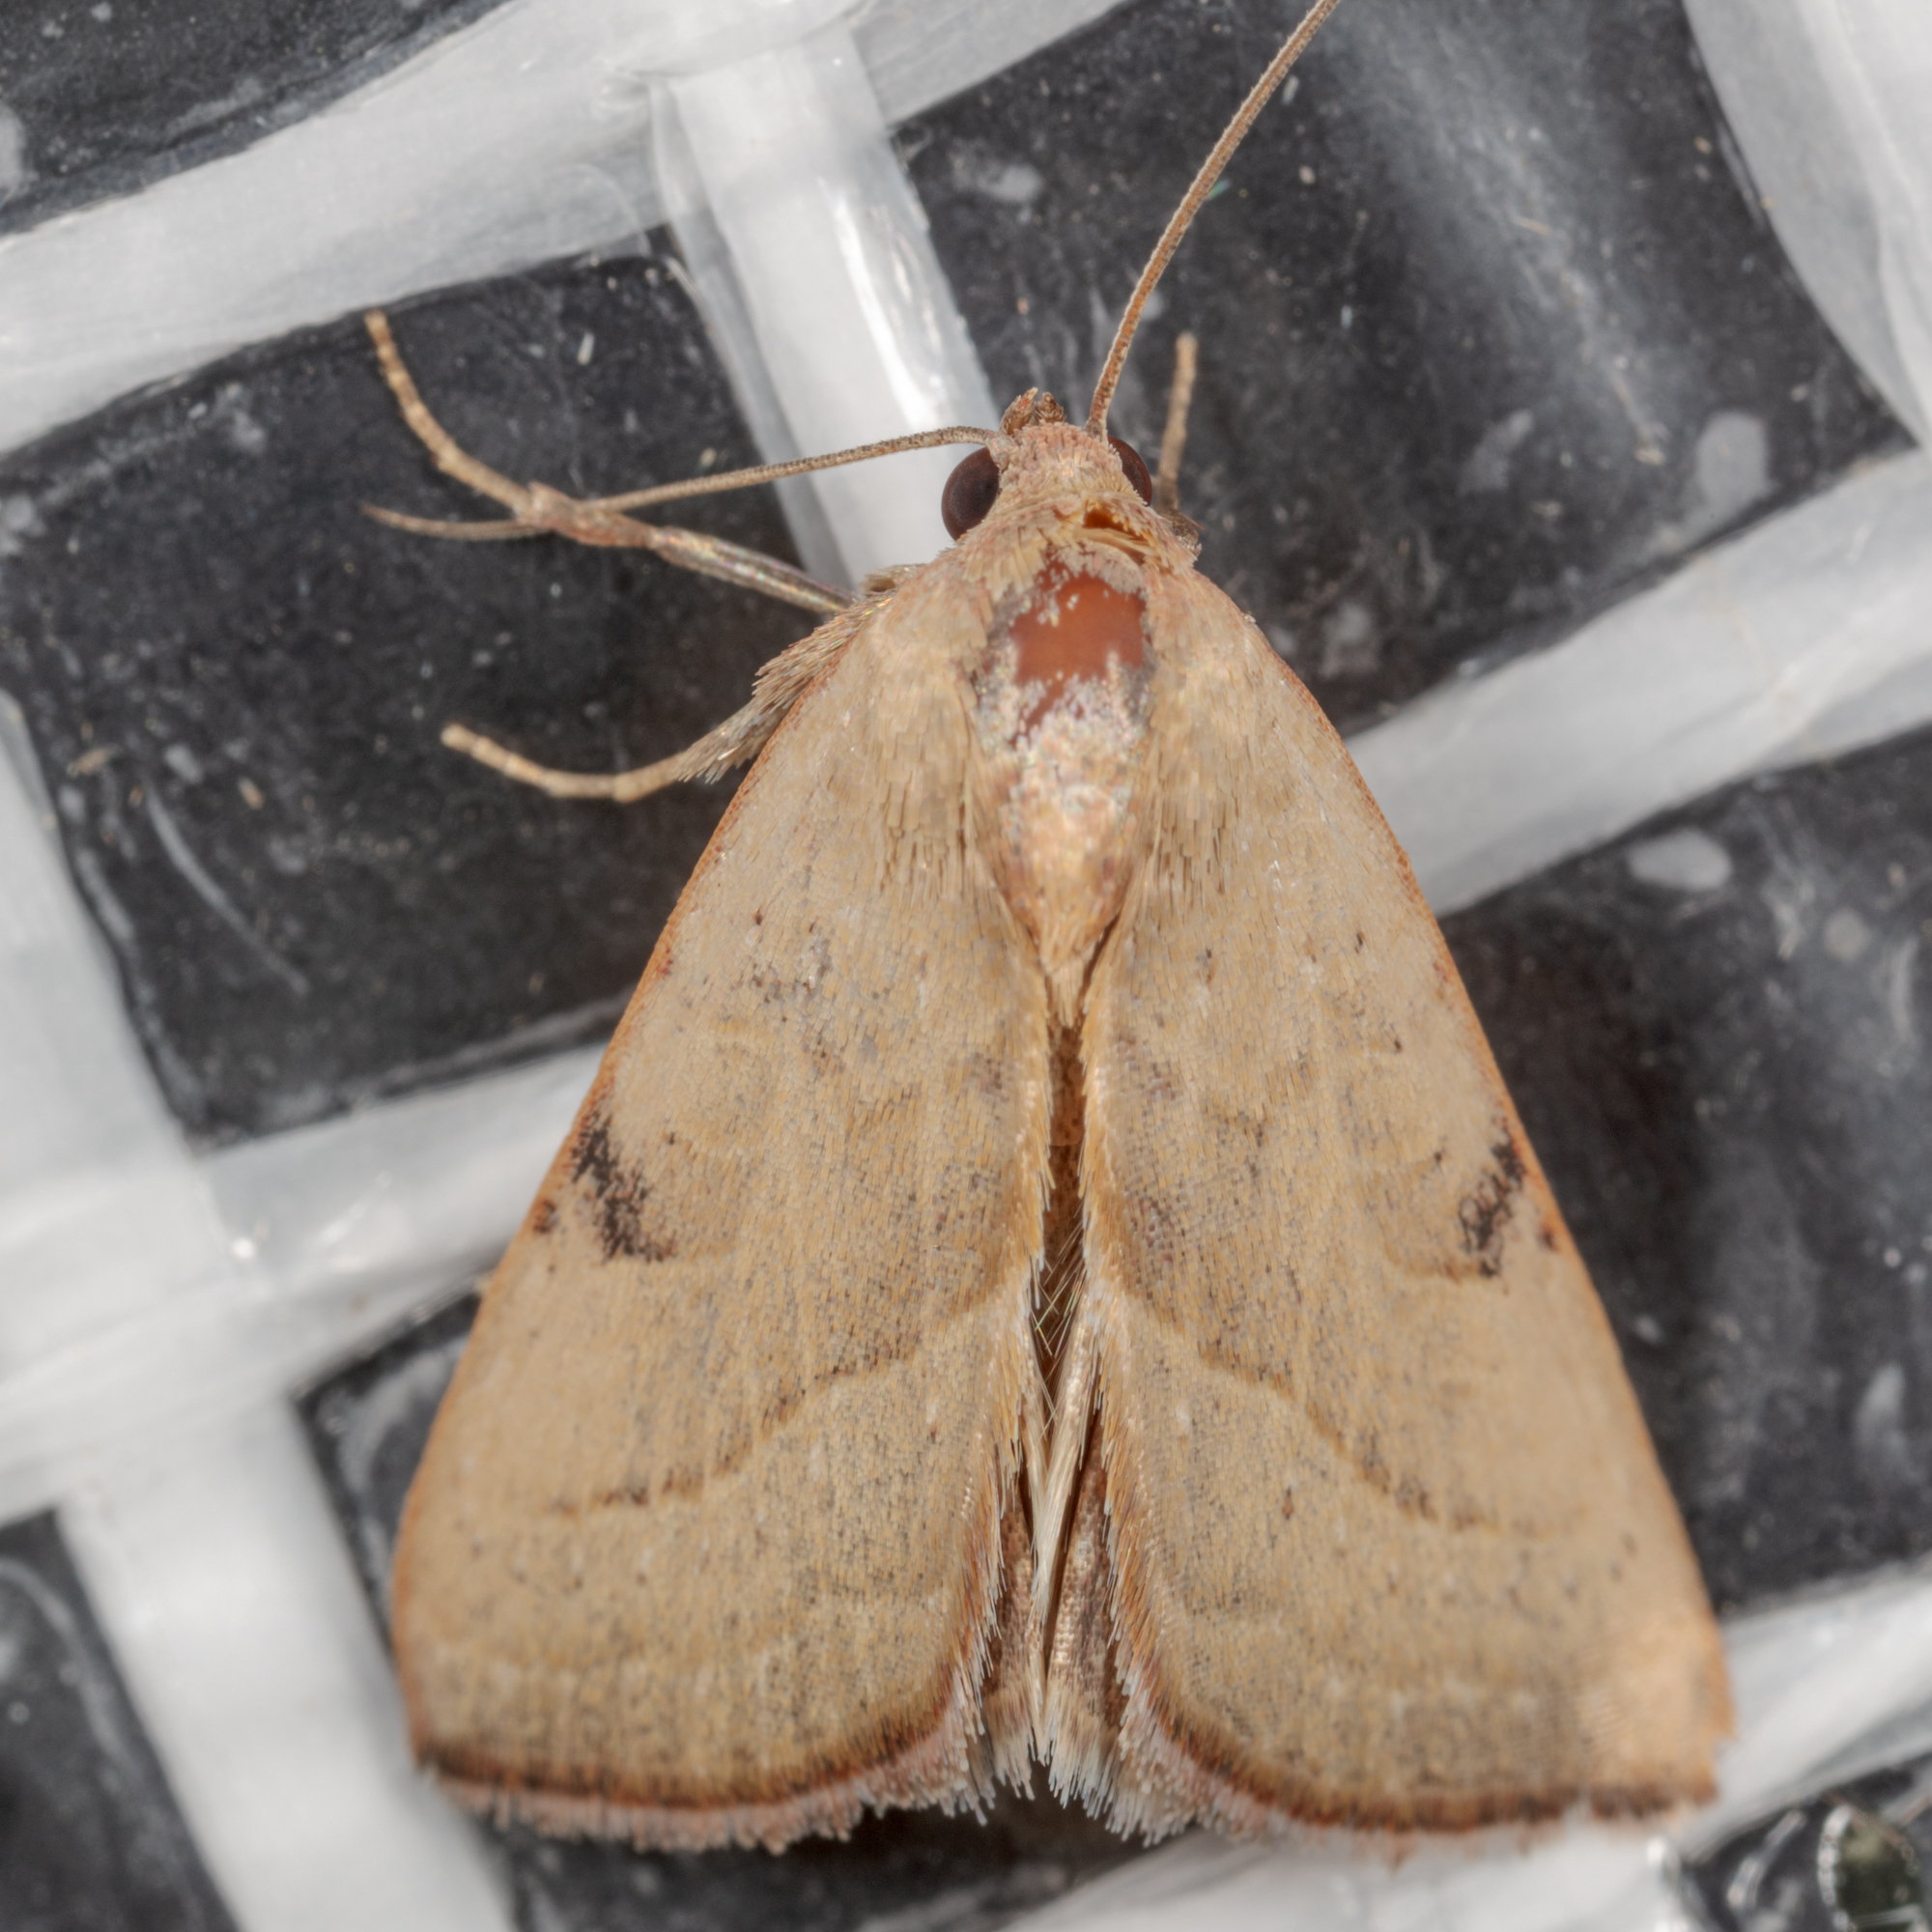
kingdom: Animalia
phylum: Arthropoda
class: Insecta
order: Lepidoptera
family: Noctuidae
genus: Galgula
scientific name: Galgula partita
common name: Wedgeling
